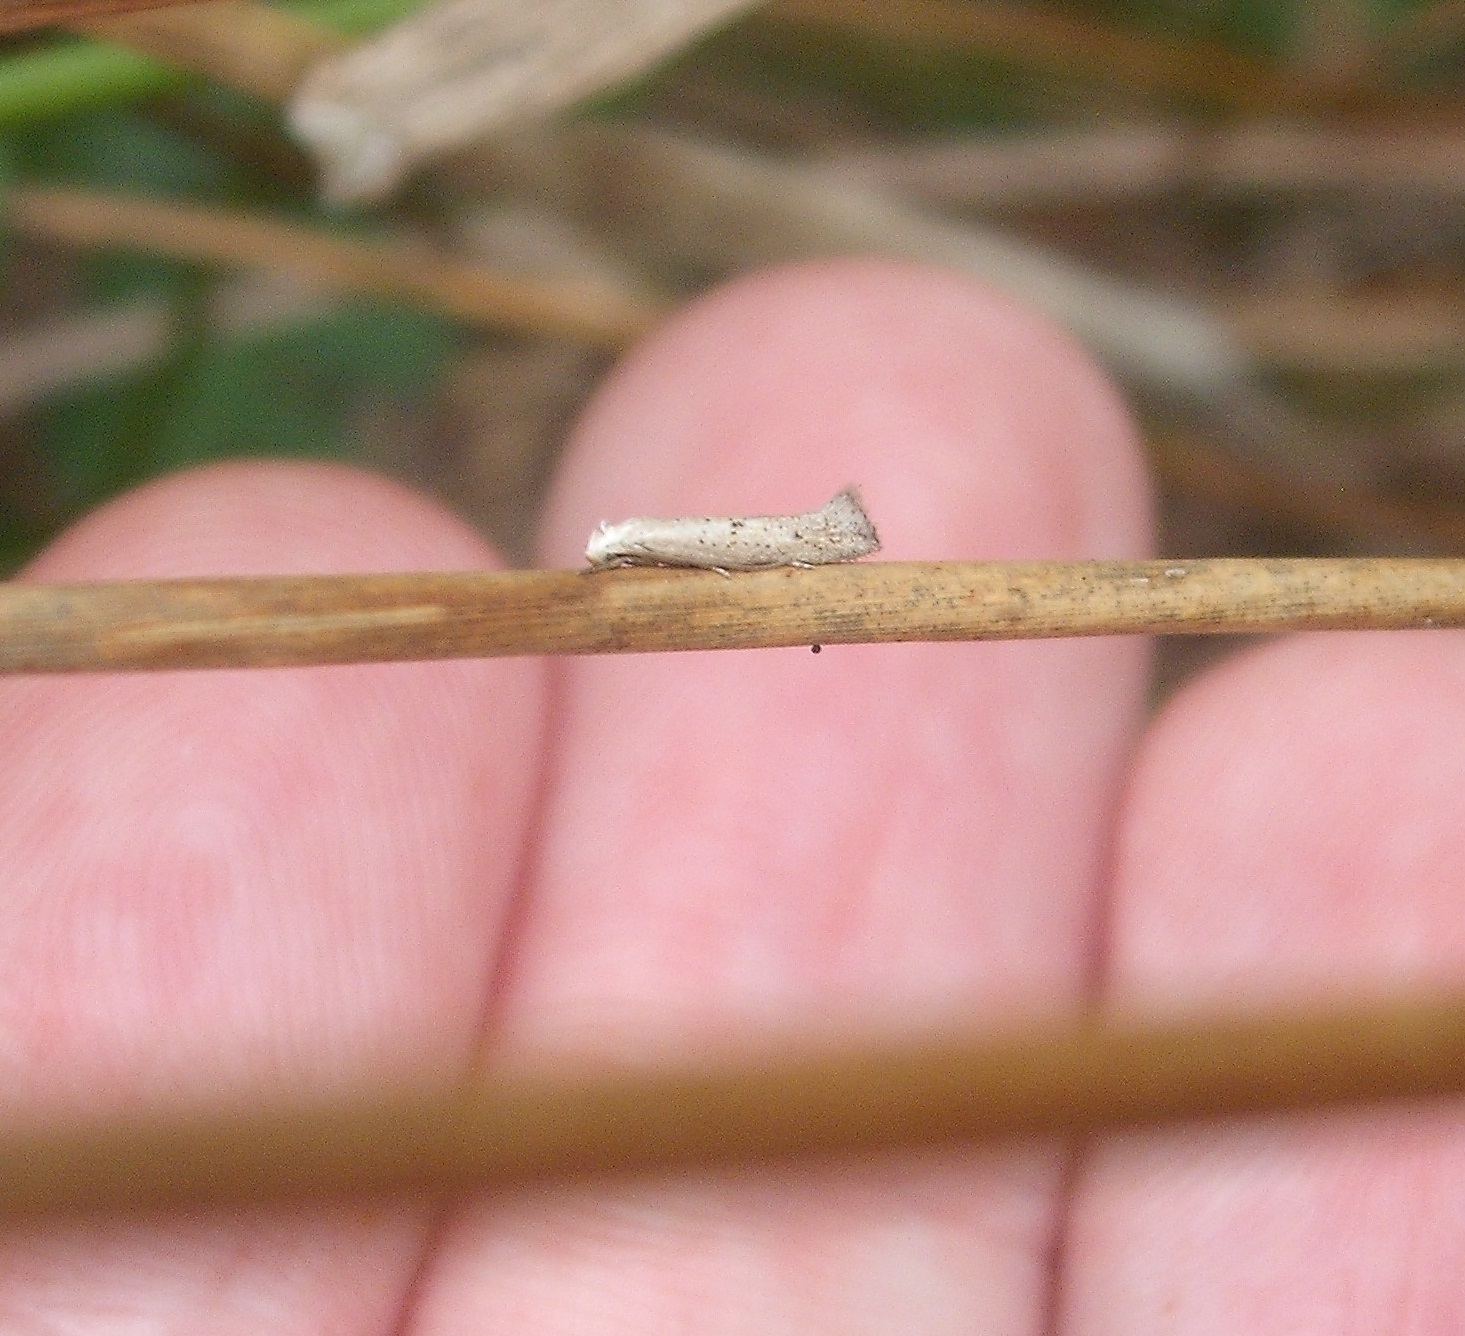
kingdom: Animalia
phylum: Arthropoda
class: Insecta
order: Lepidoptera
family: Elachistidae
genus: Elachista
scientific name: Elachista gerasmia
